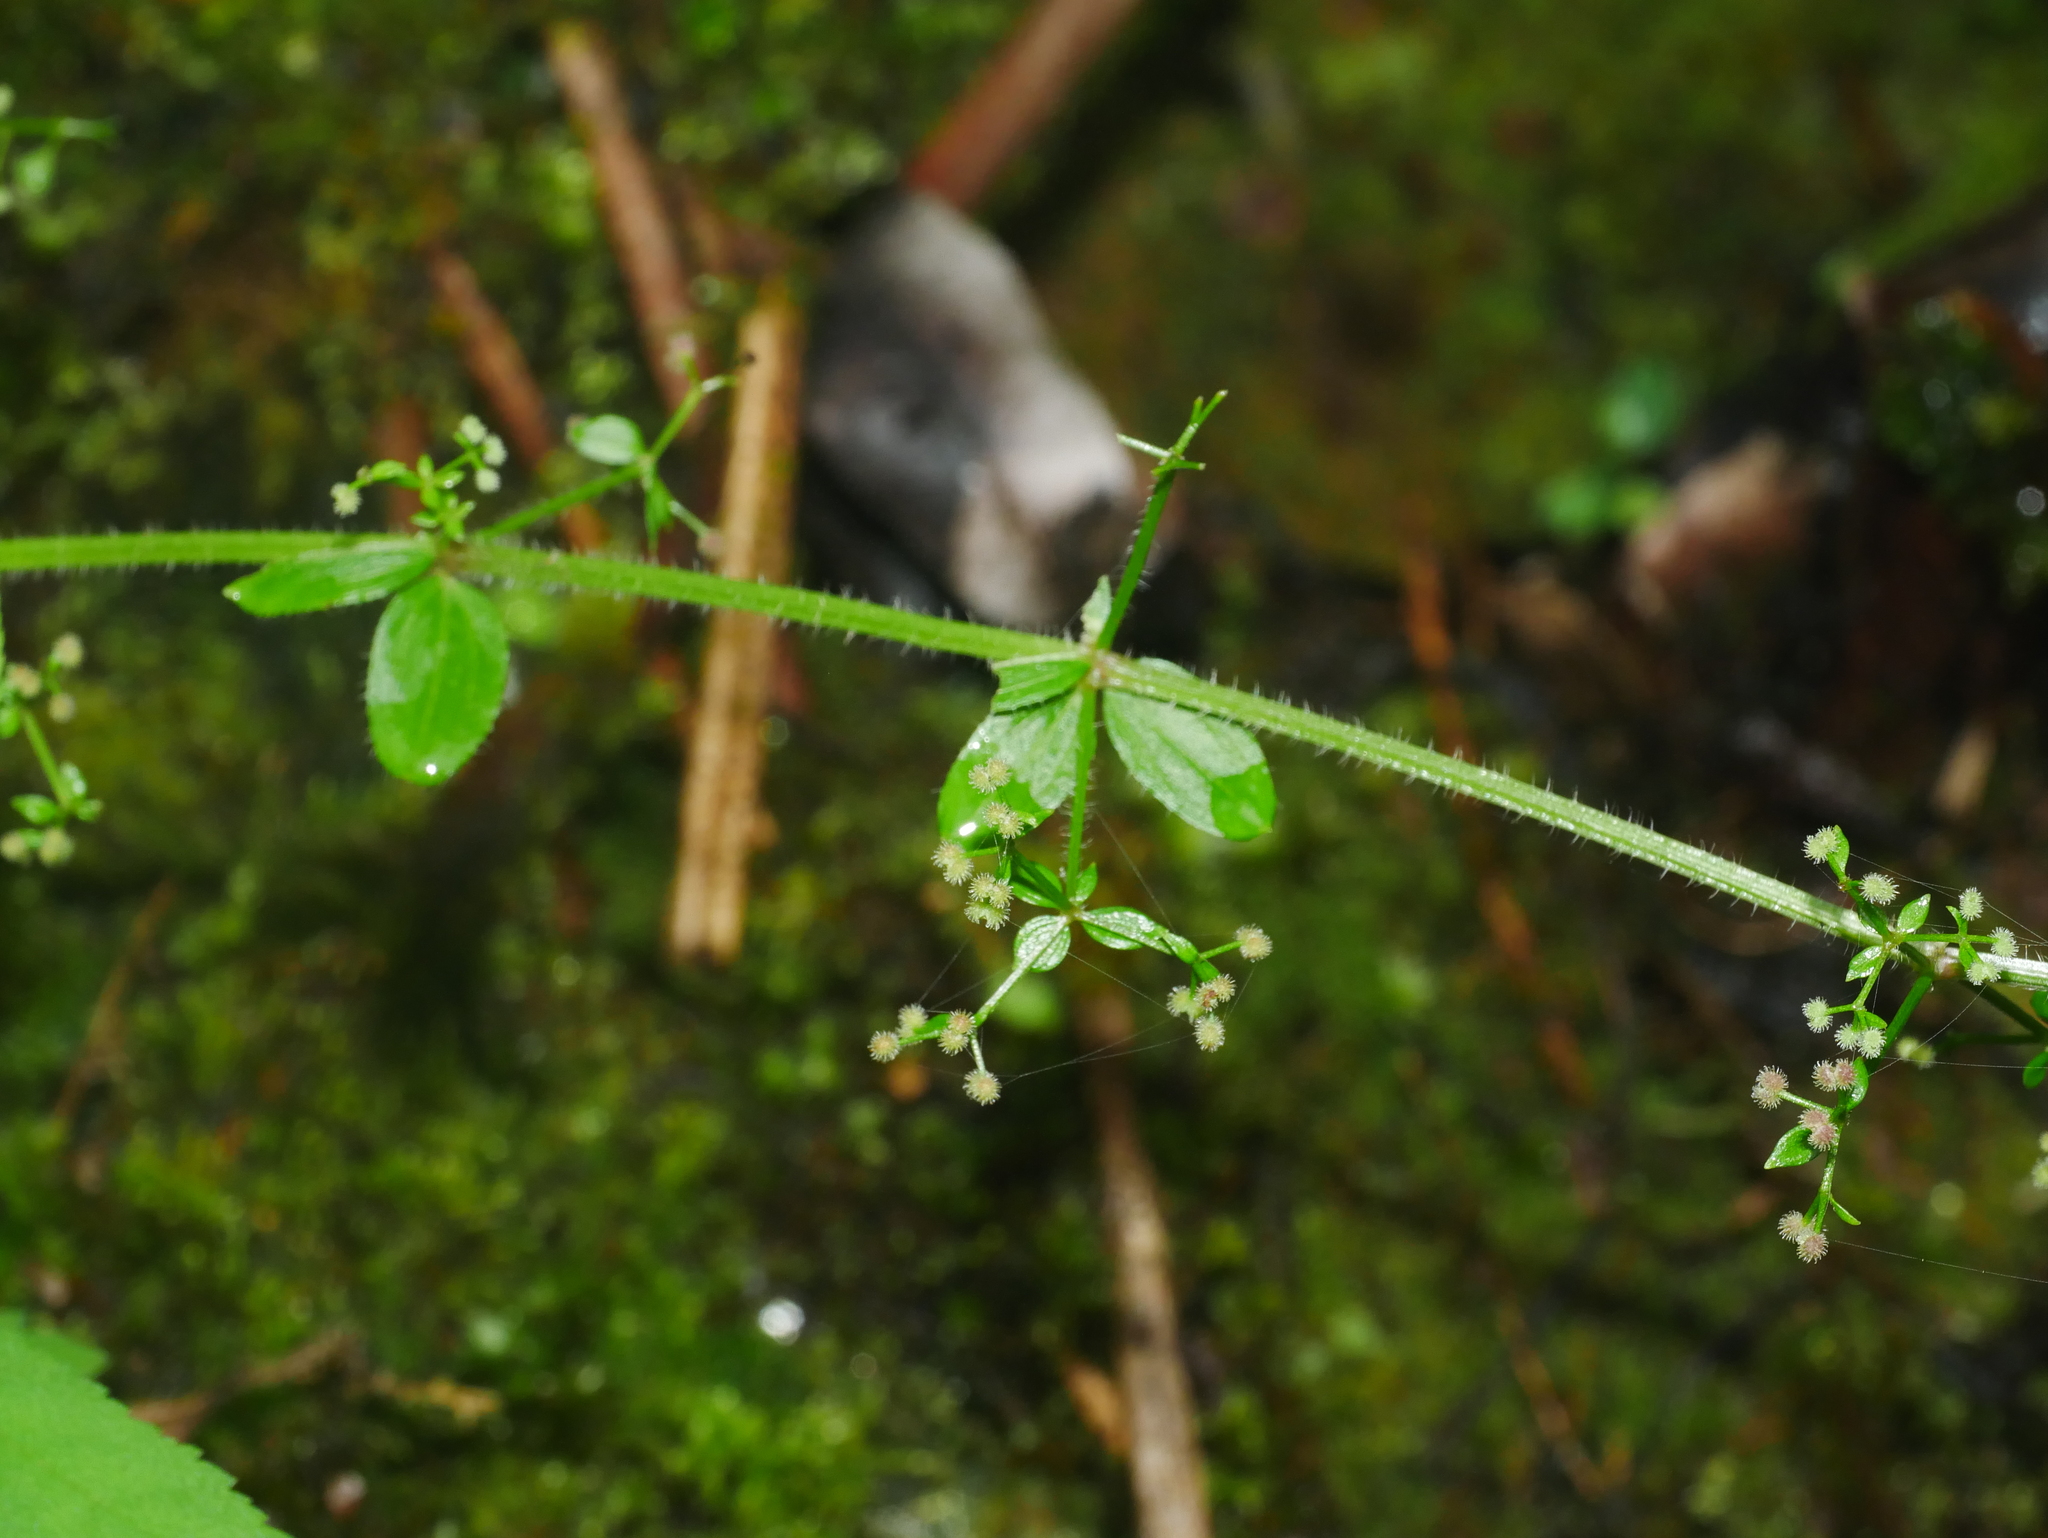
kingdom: Plantae
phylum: Tracheophyta
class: Magnoliopsida
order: Gentianales
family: Rubiaceae
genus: Galium
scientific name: Galium formosense
